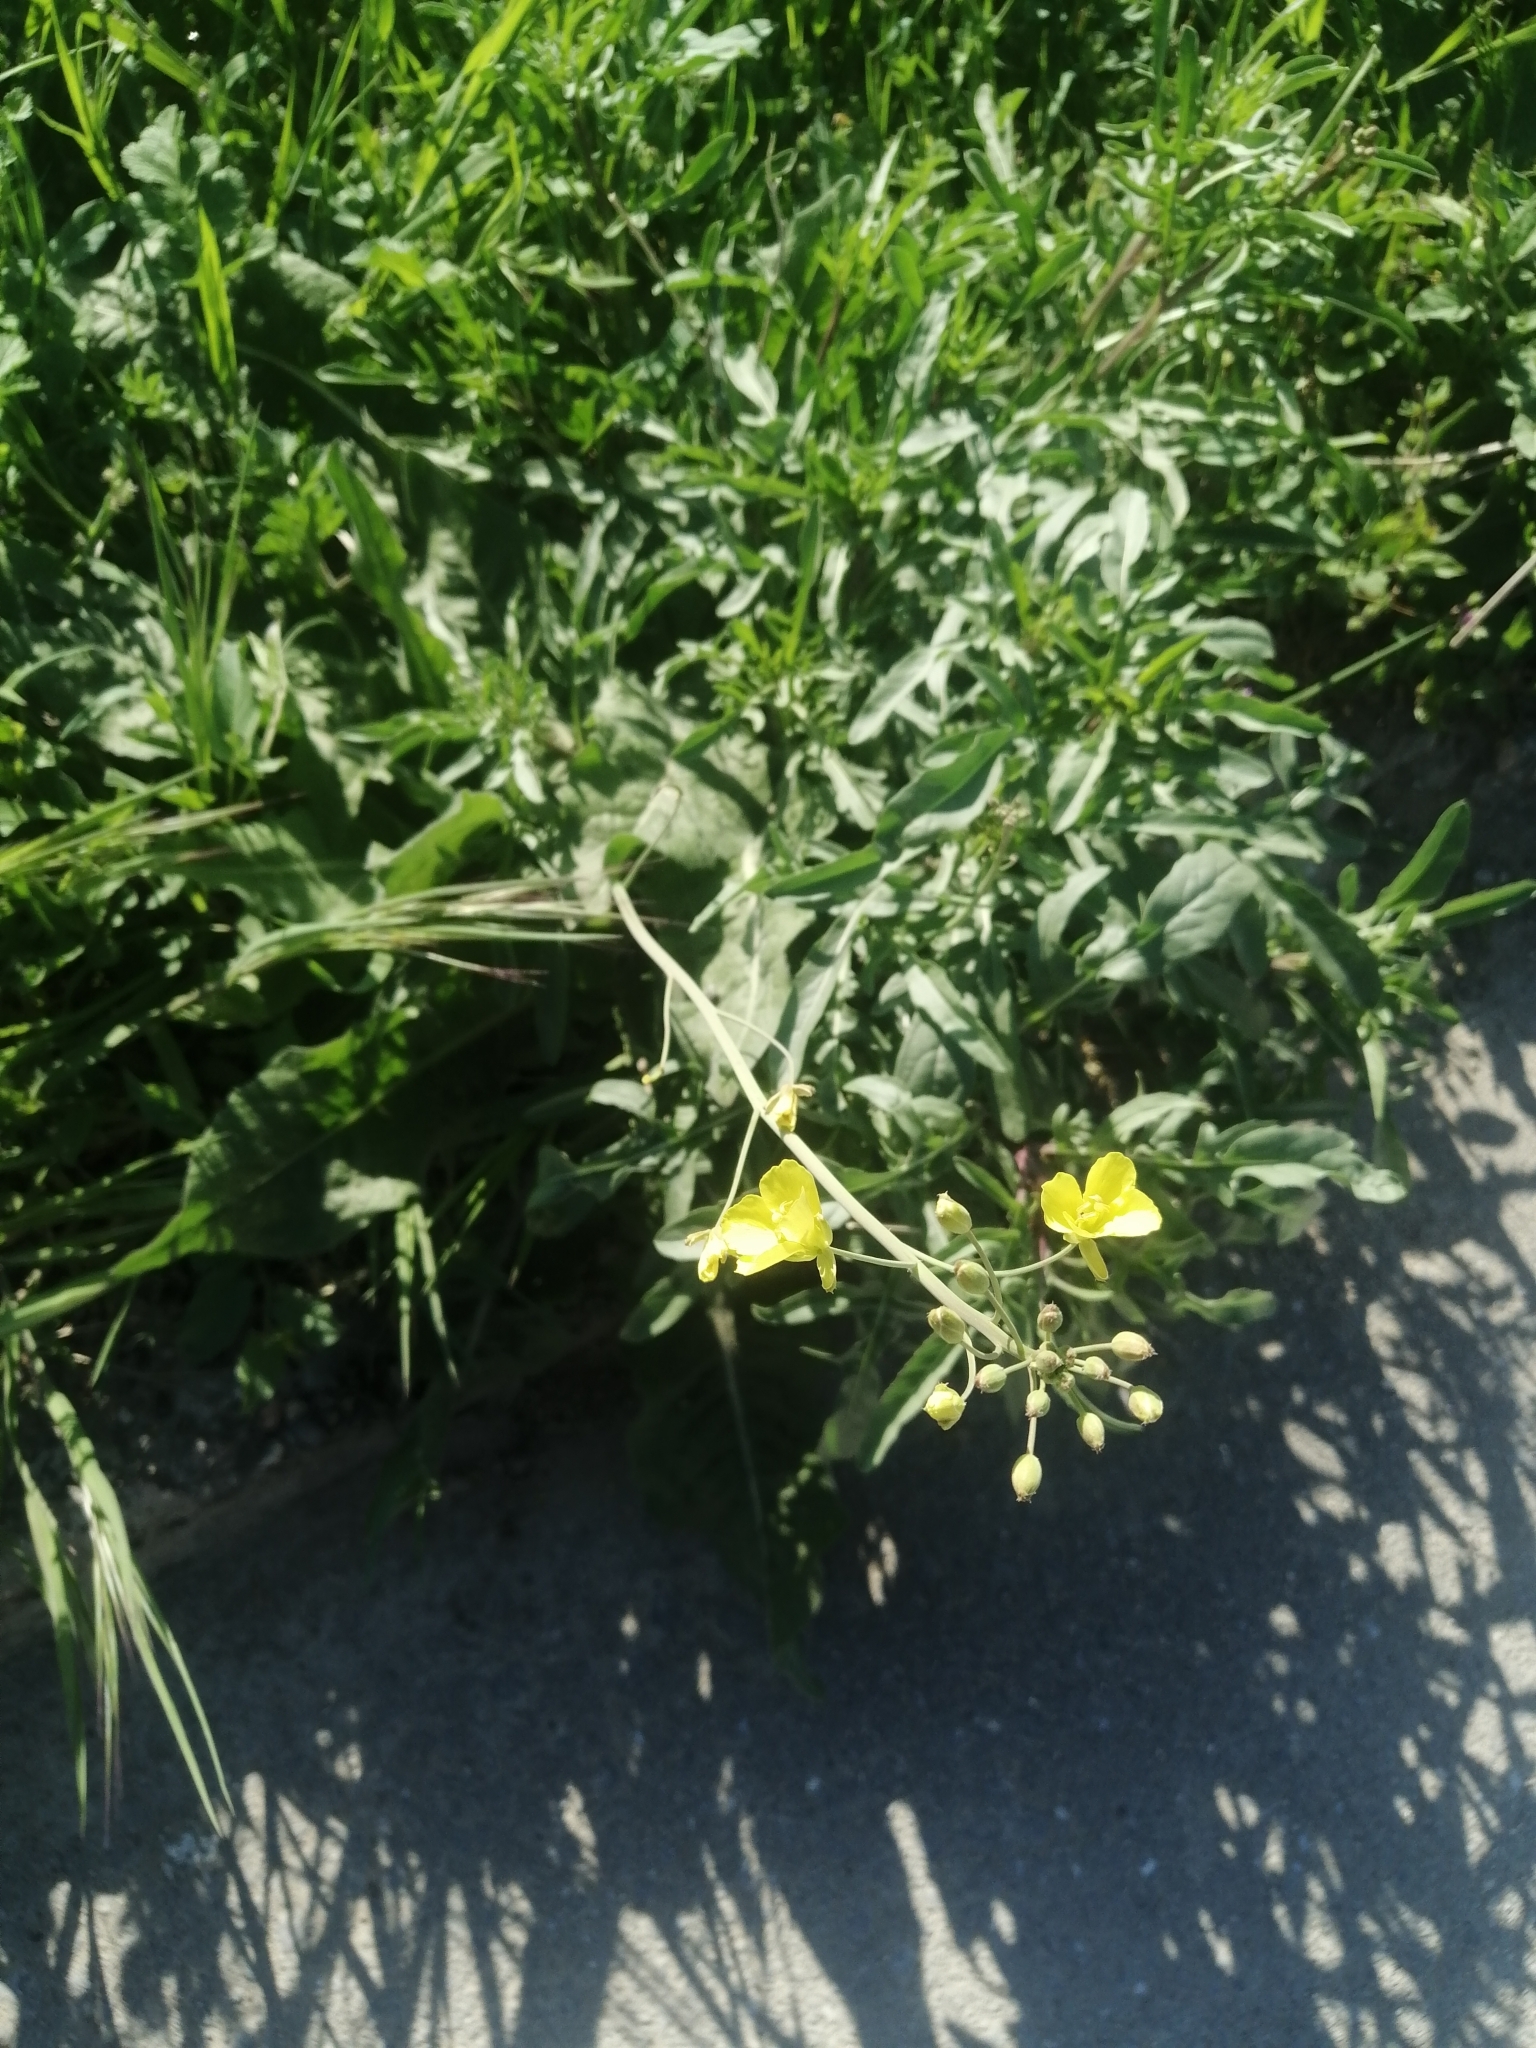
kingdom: Plantae
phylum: Tracheophyta
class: Magnoliopsida
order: Brassicales
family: Brassicaceae
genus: Diplotaxis
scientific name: Diplotaxis tenuifolia
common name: Perennial wall-rocket
